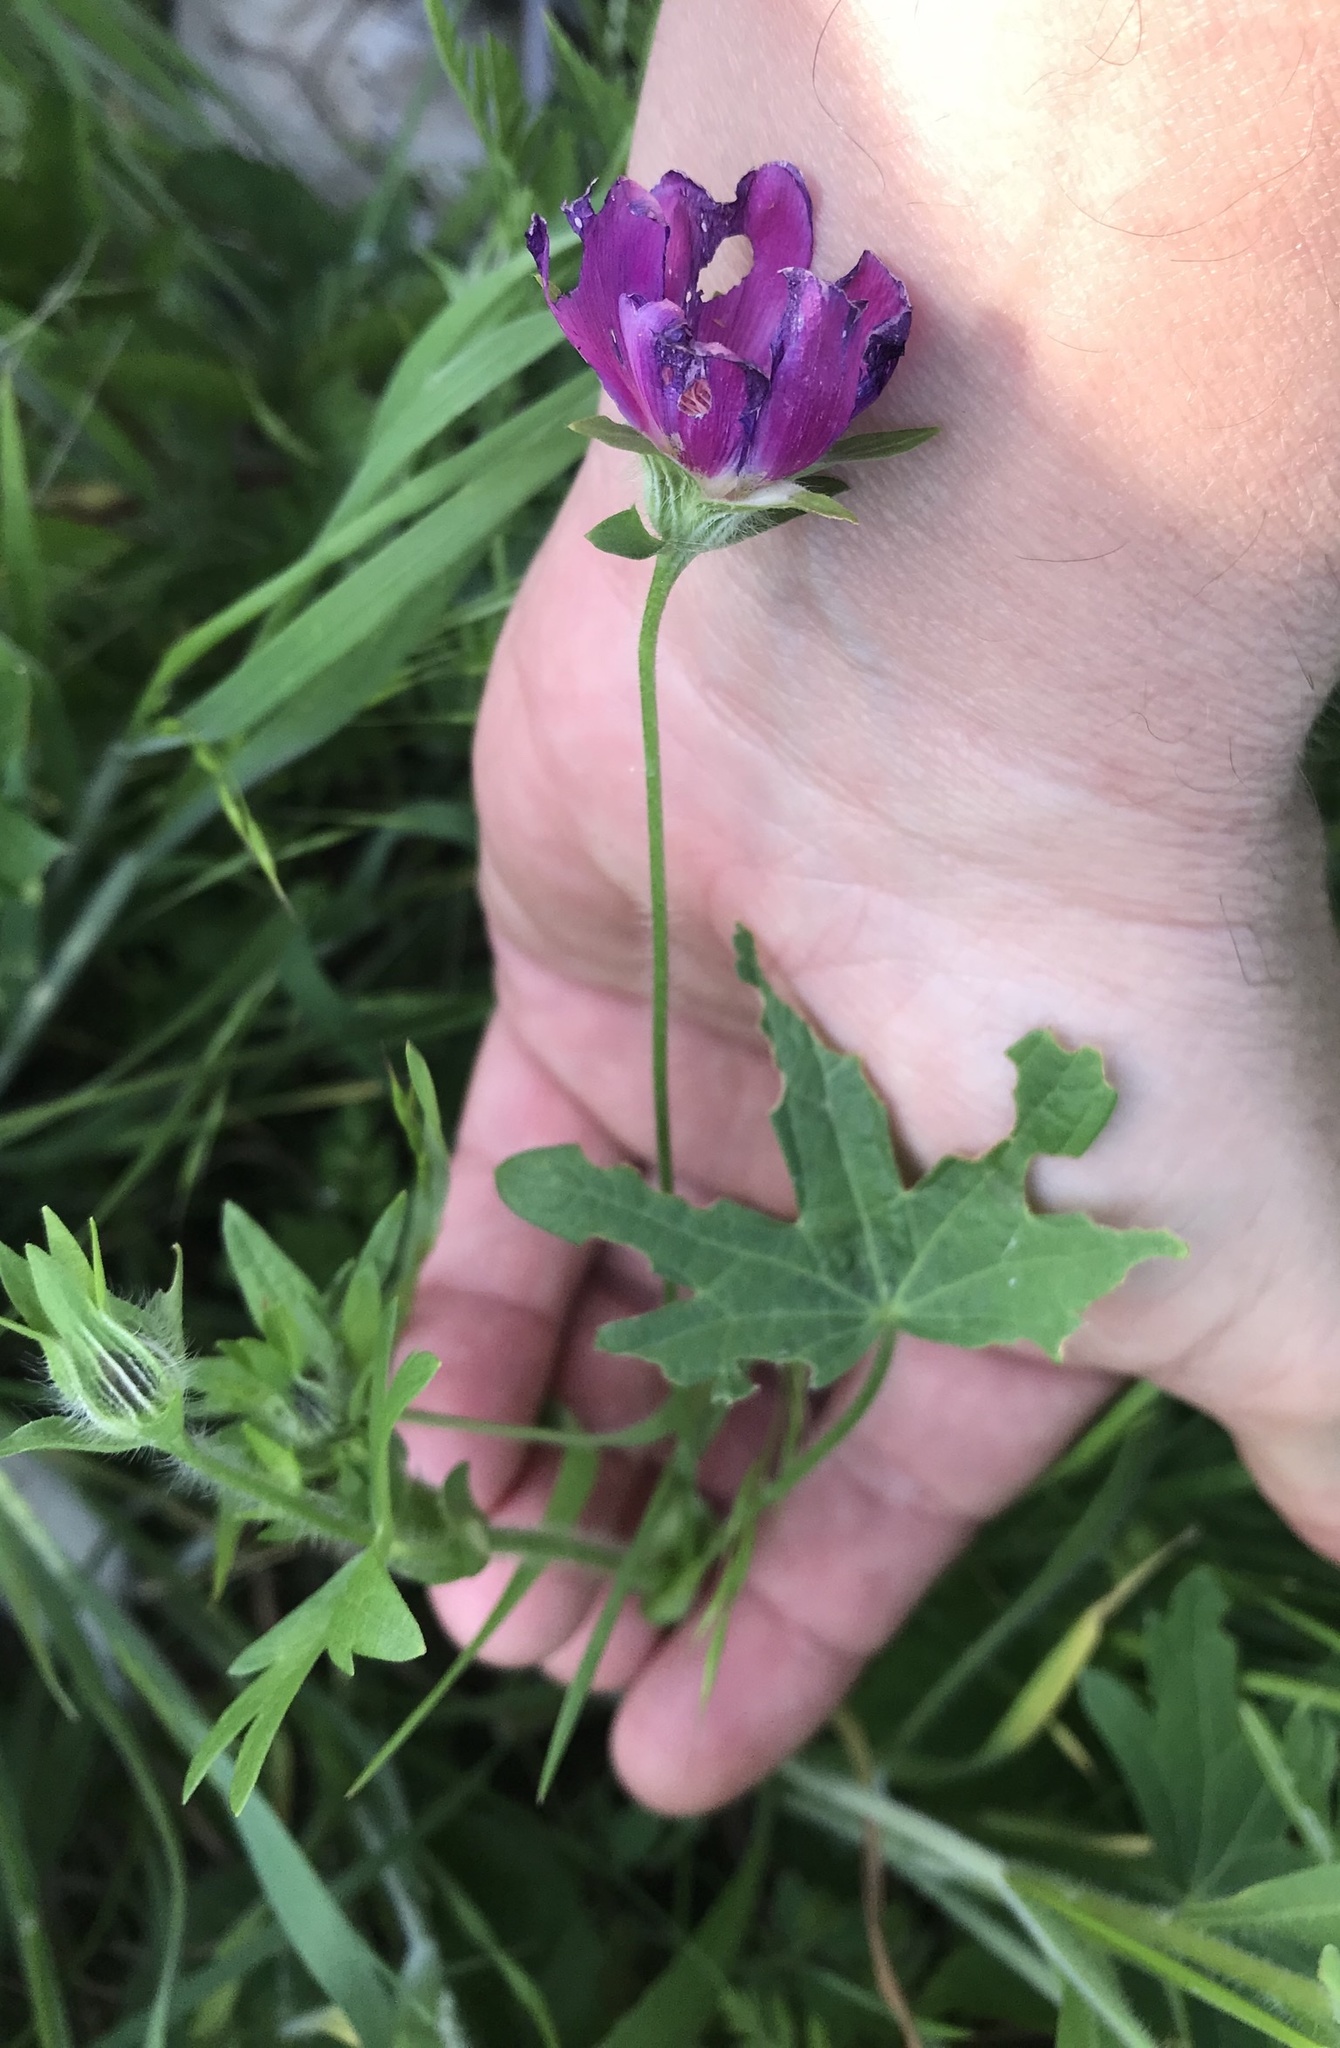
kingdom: Plantae
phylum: Tracheophyta
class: Magnoliopsida
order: Malvales
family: Malvaceae
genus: Callirhoe
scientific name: Callirhoe involucrata
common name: Purple poppy-mallow
